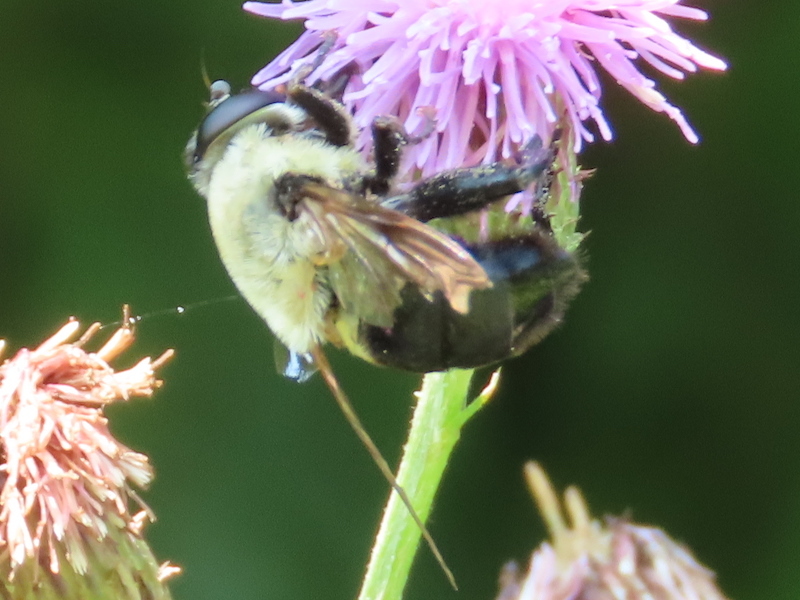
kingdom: Animalia
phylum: Arthropoda
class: Insecta
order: Diptera
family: Syrphidae
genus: Imatisma
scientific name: Imatisma bautias
